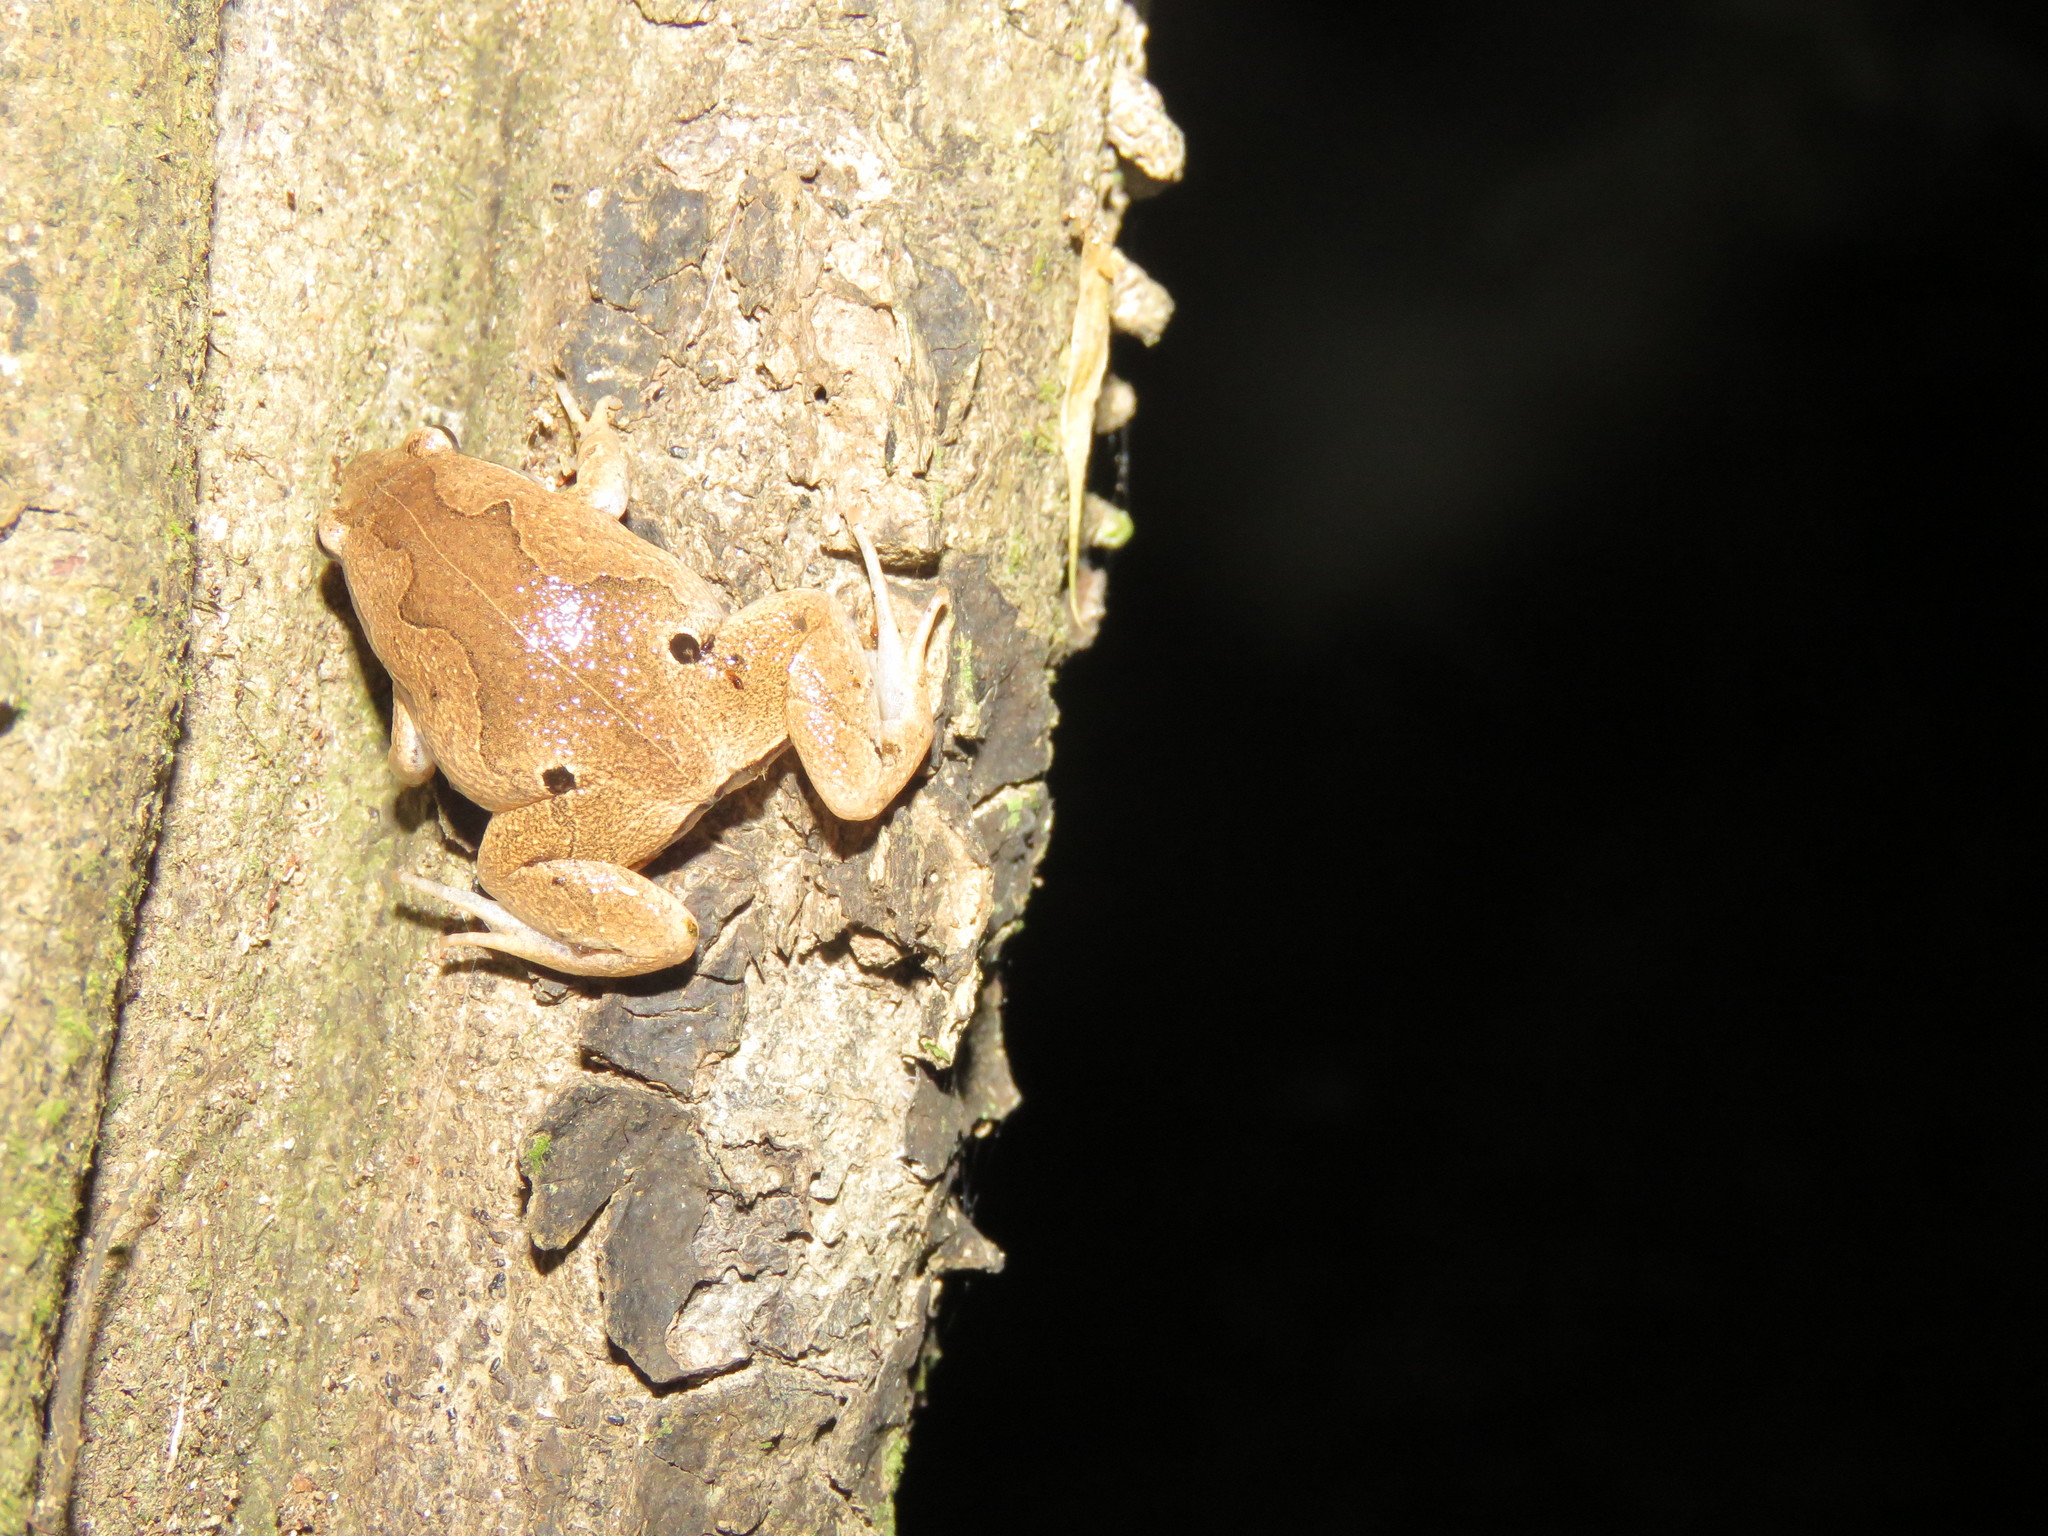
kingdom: Animalia
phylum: Chordata
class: Amphibia
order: Anura
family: Microhylidae
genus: Hamptophryne
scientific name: Hamptophryne boliviana
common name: Bolivian bleating frog
